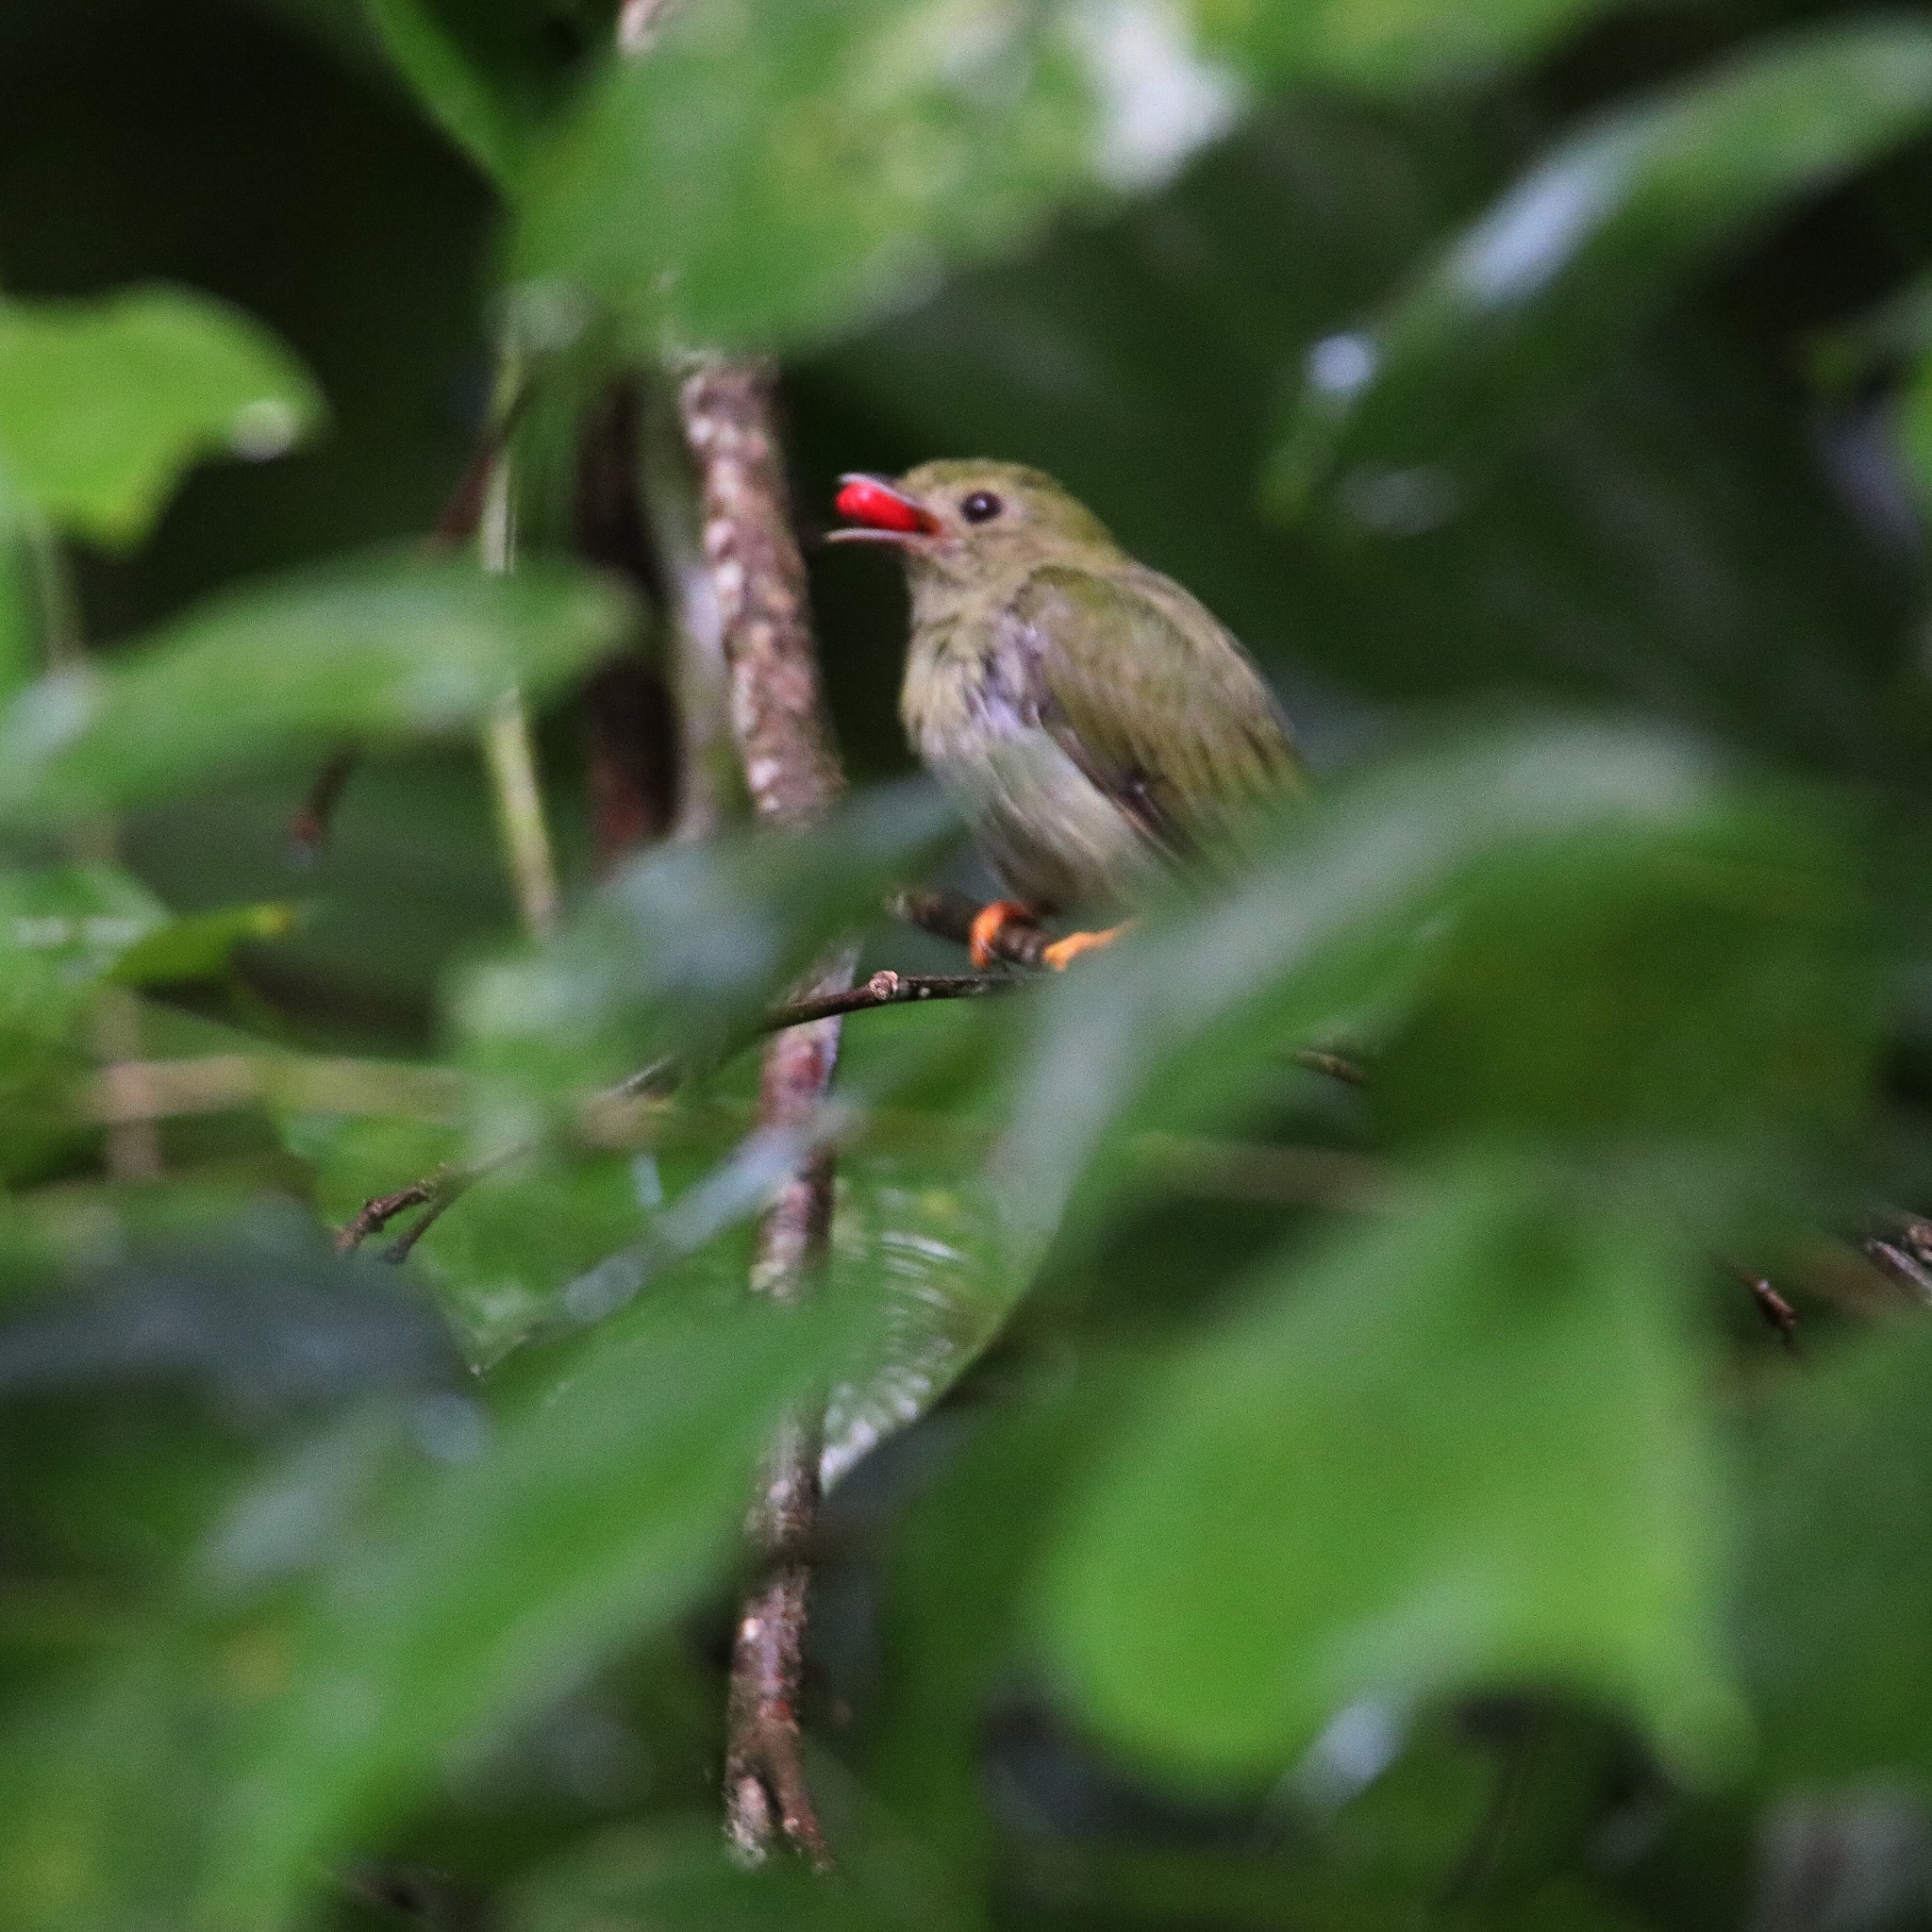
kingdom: Animalia
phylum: Chordata
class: Aves
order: Passeriformes
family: Pipridae
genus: Chiroxiphia
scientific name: Chiroxiphia lanceolata
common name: Lance-tailed manakin
